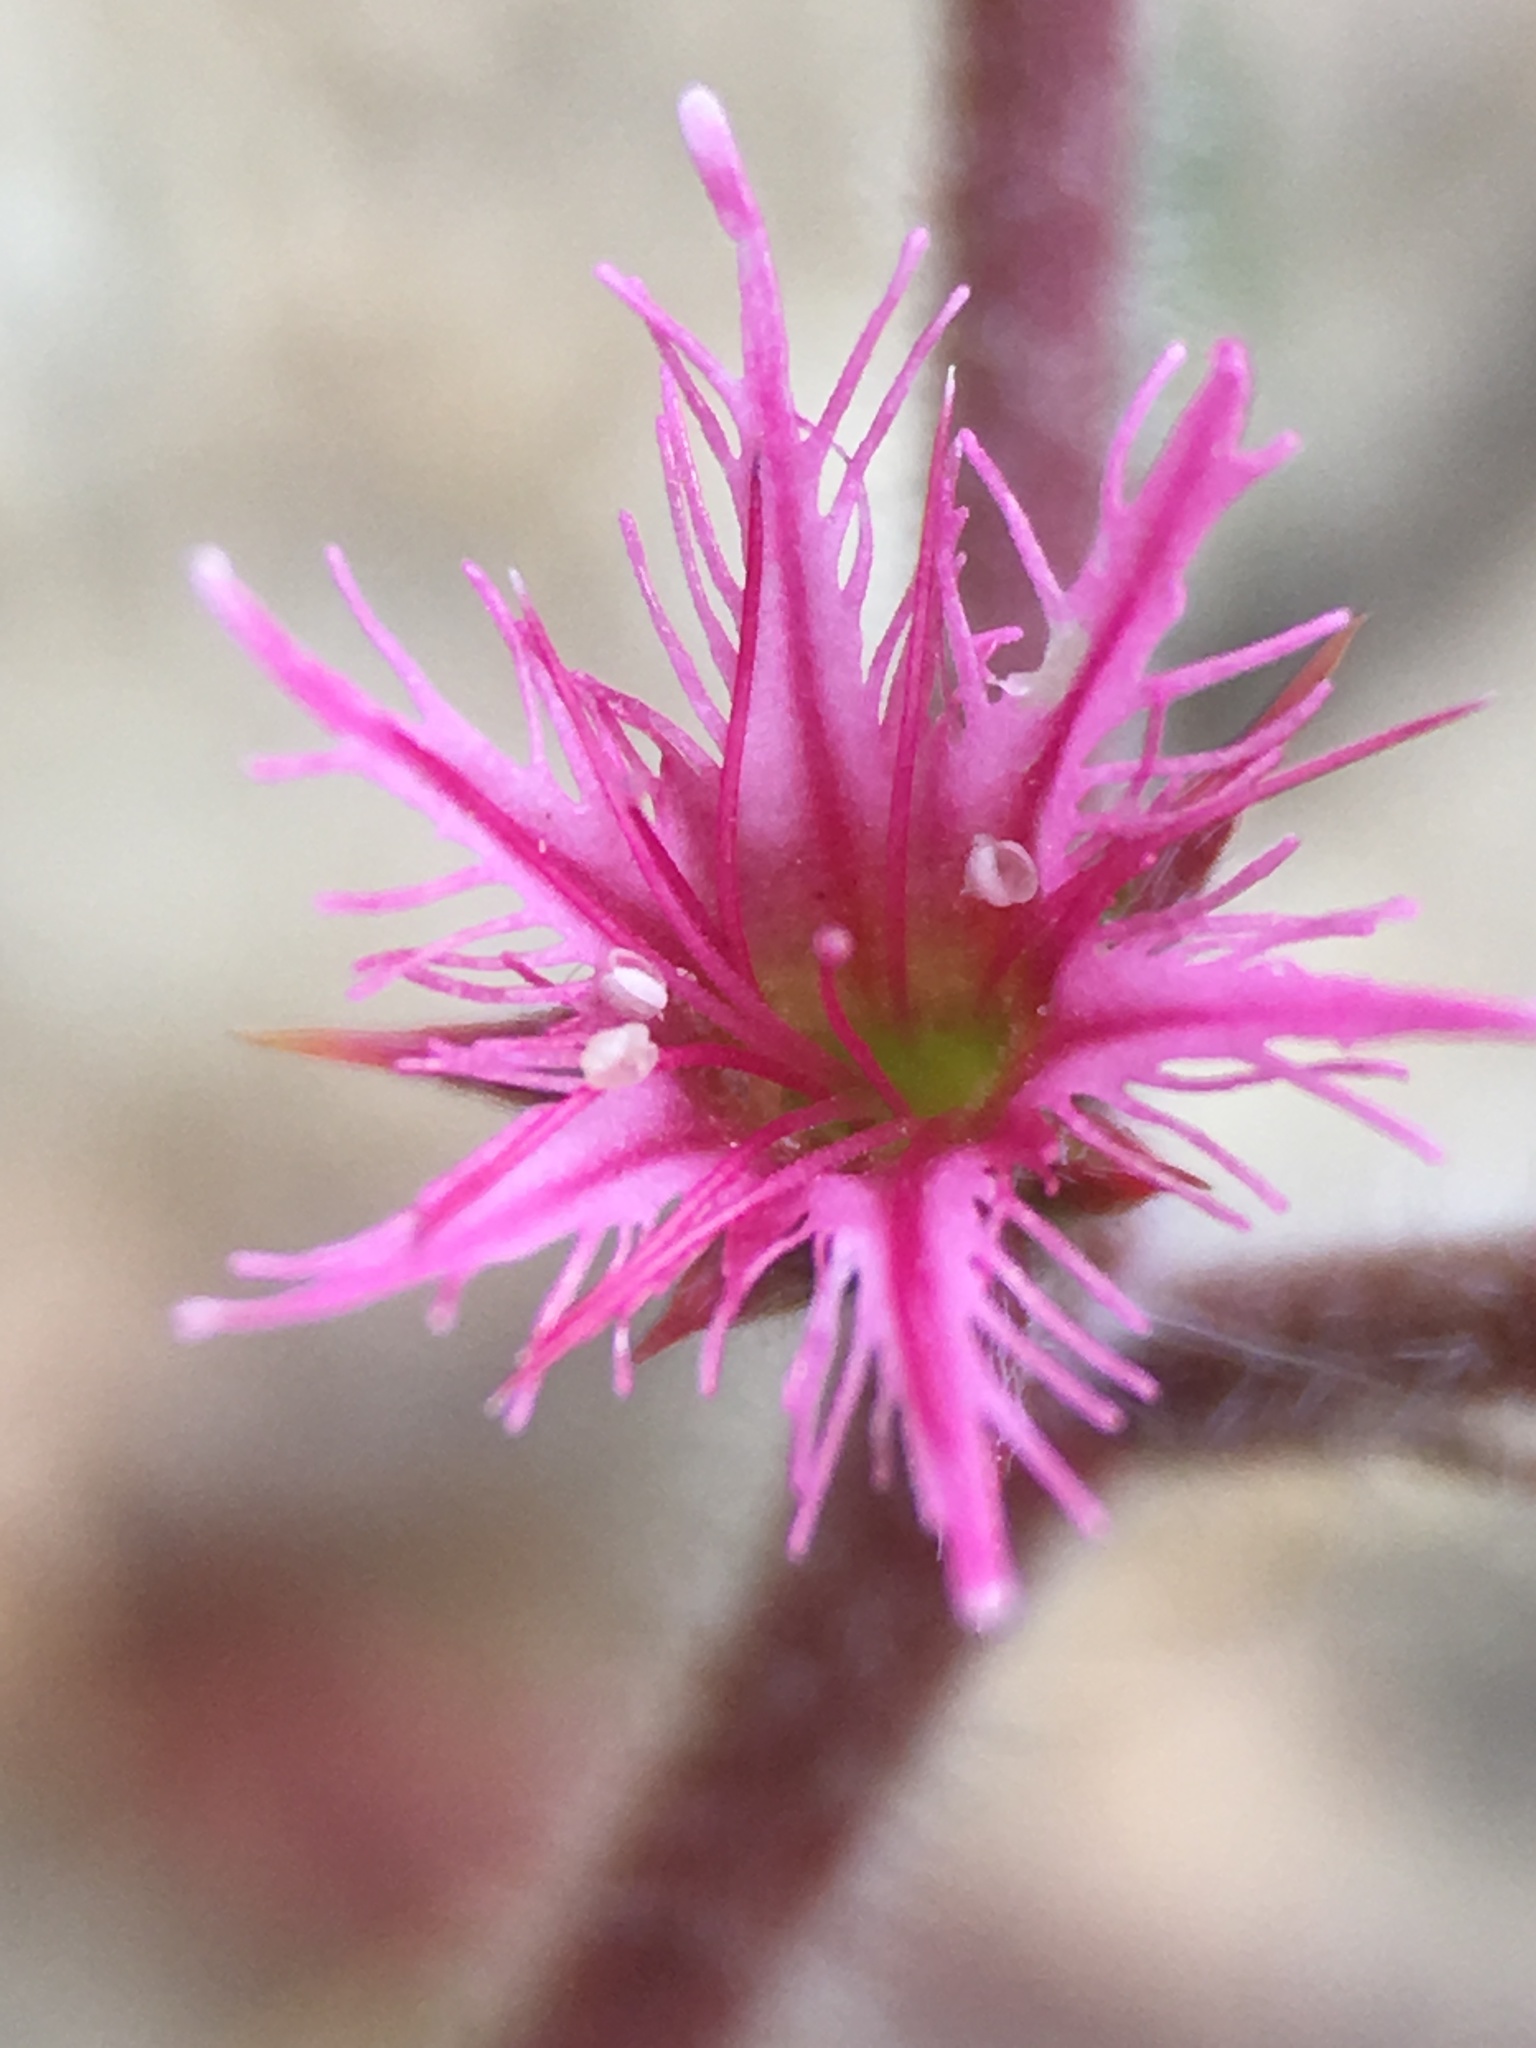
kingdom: Plantae
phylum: Tracheophyta
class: Magnoliopsida
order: Caryophyllales
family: Polygonaceae
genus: Chorizanthe
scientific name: Chorizanthe fimbriata
